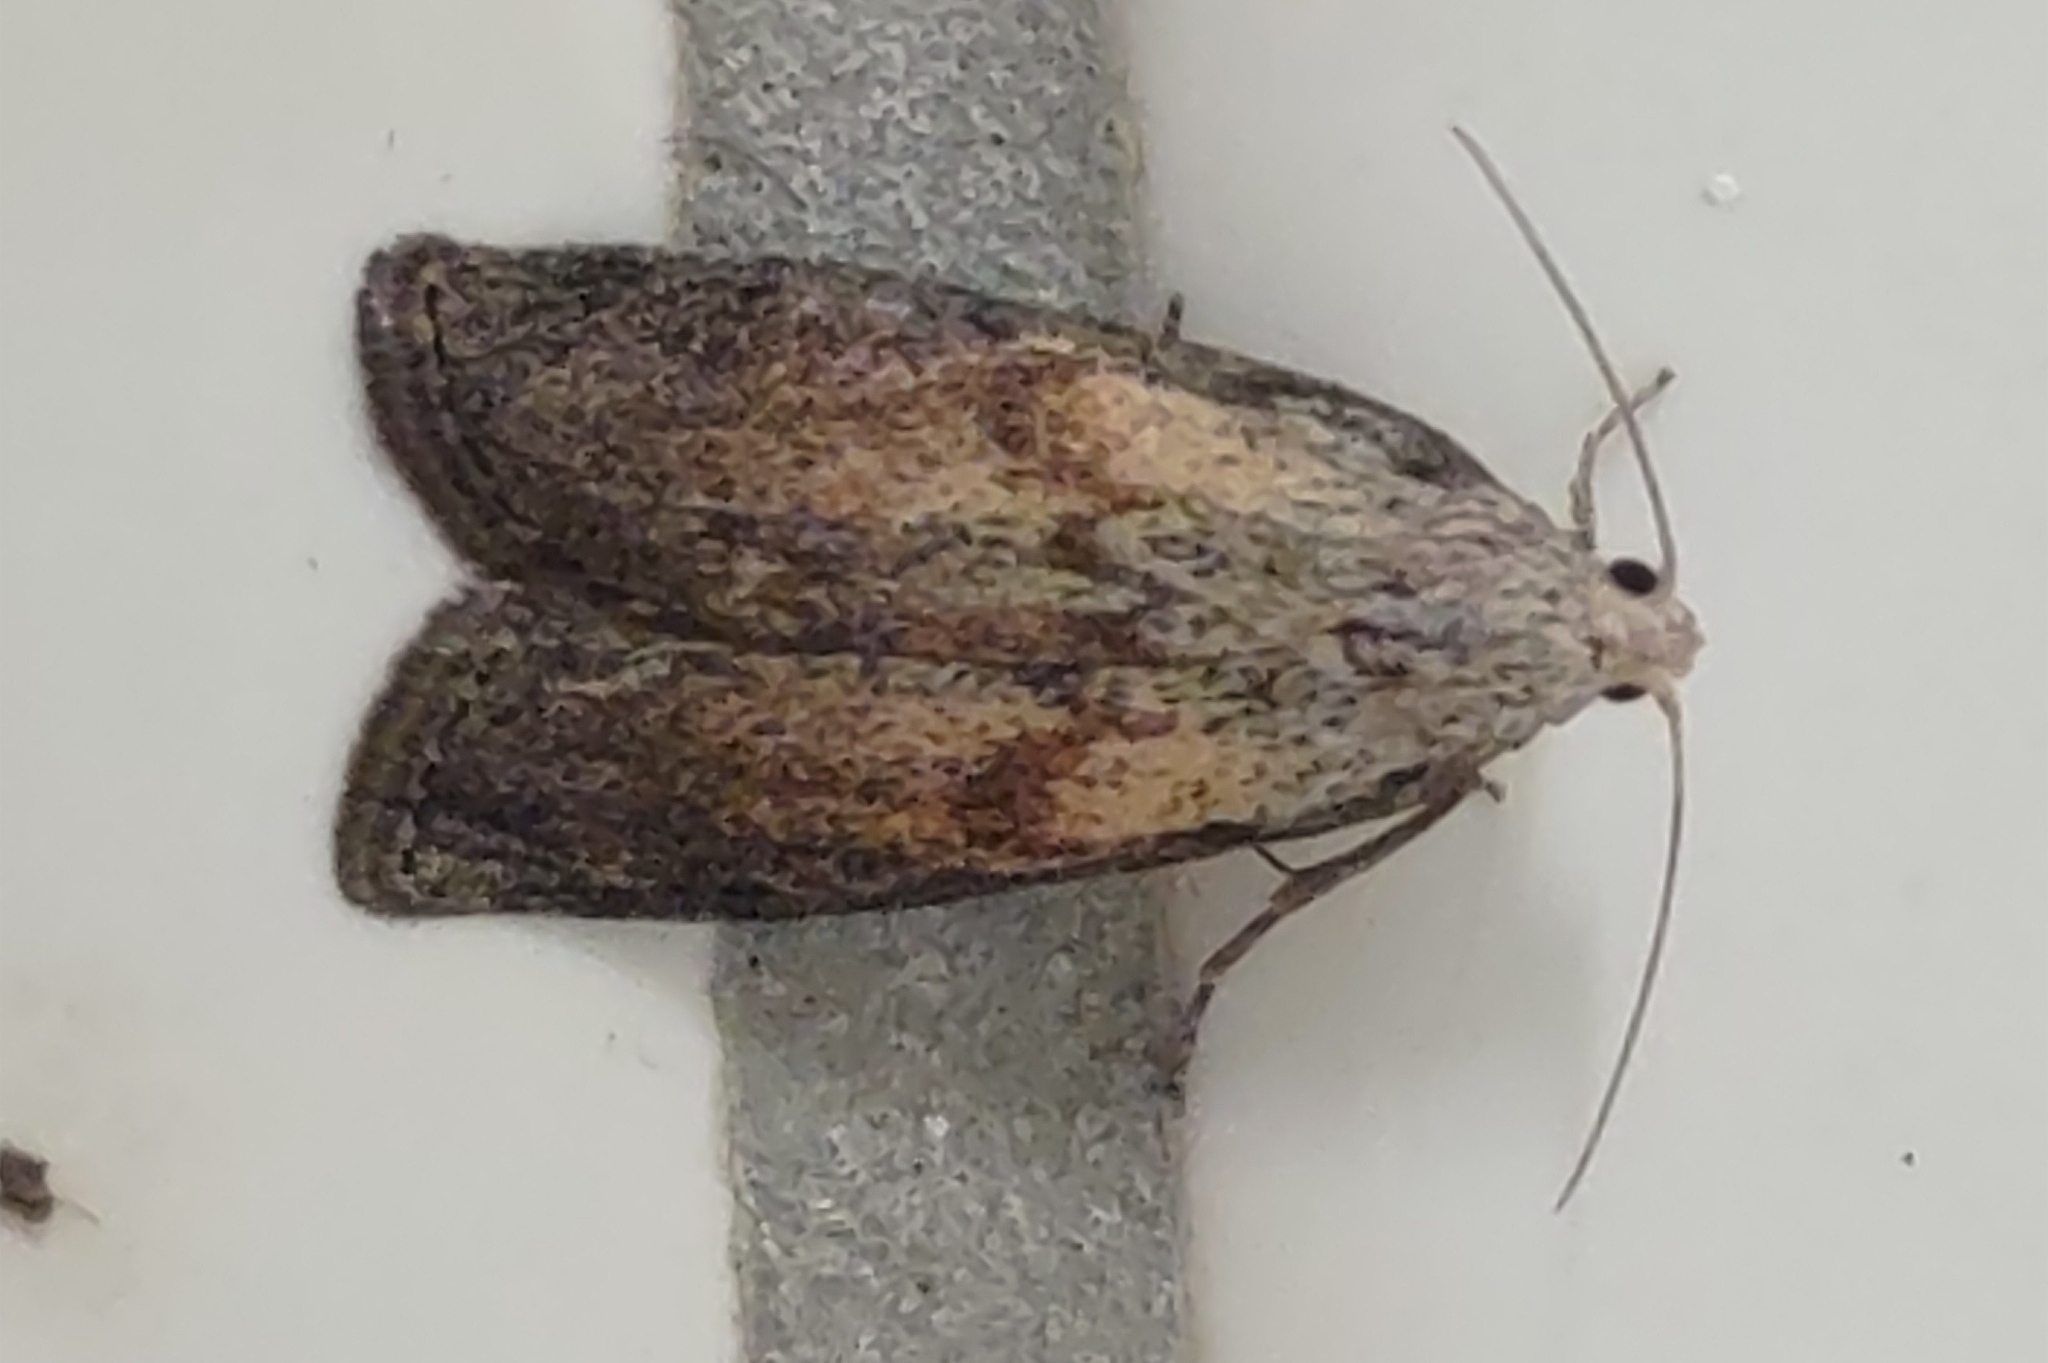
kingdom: Animalia
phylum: Arthropoda
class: Insecta
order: Lepidoptera
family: Pyralidae
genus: Aphomia
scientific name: Aphomia sociella
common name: Bee moth
